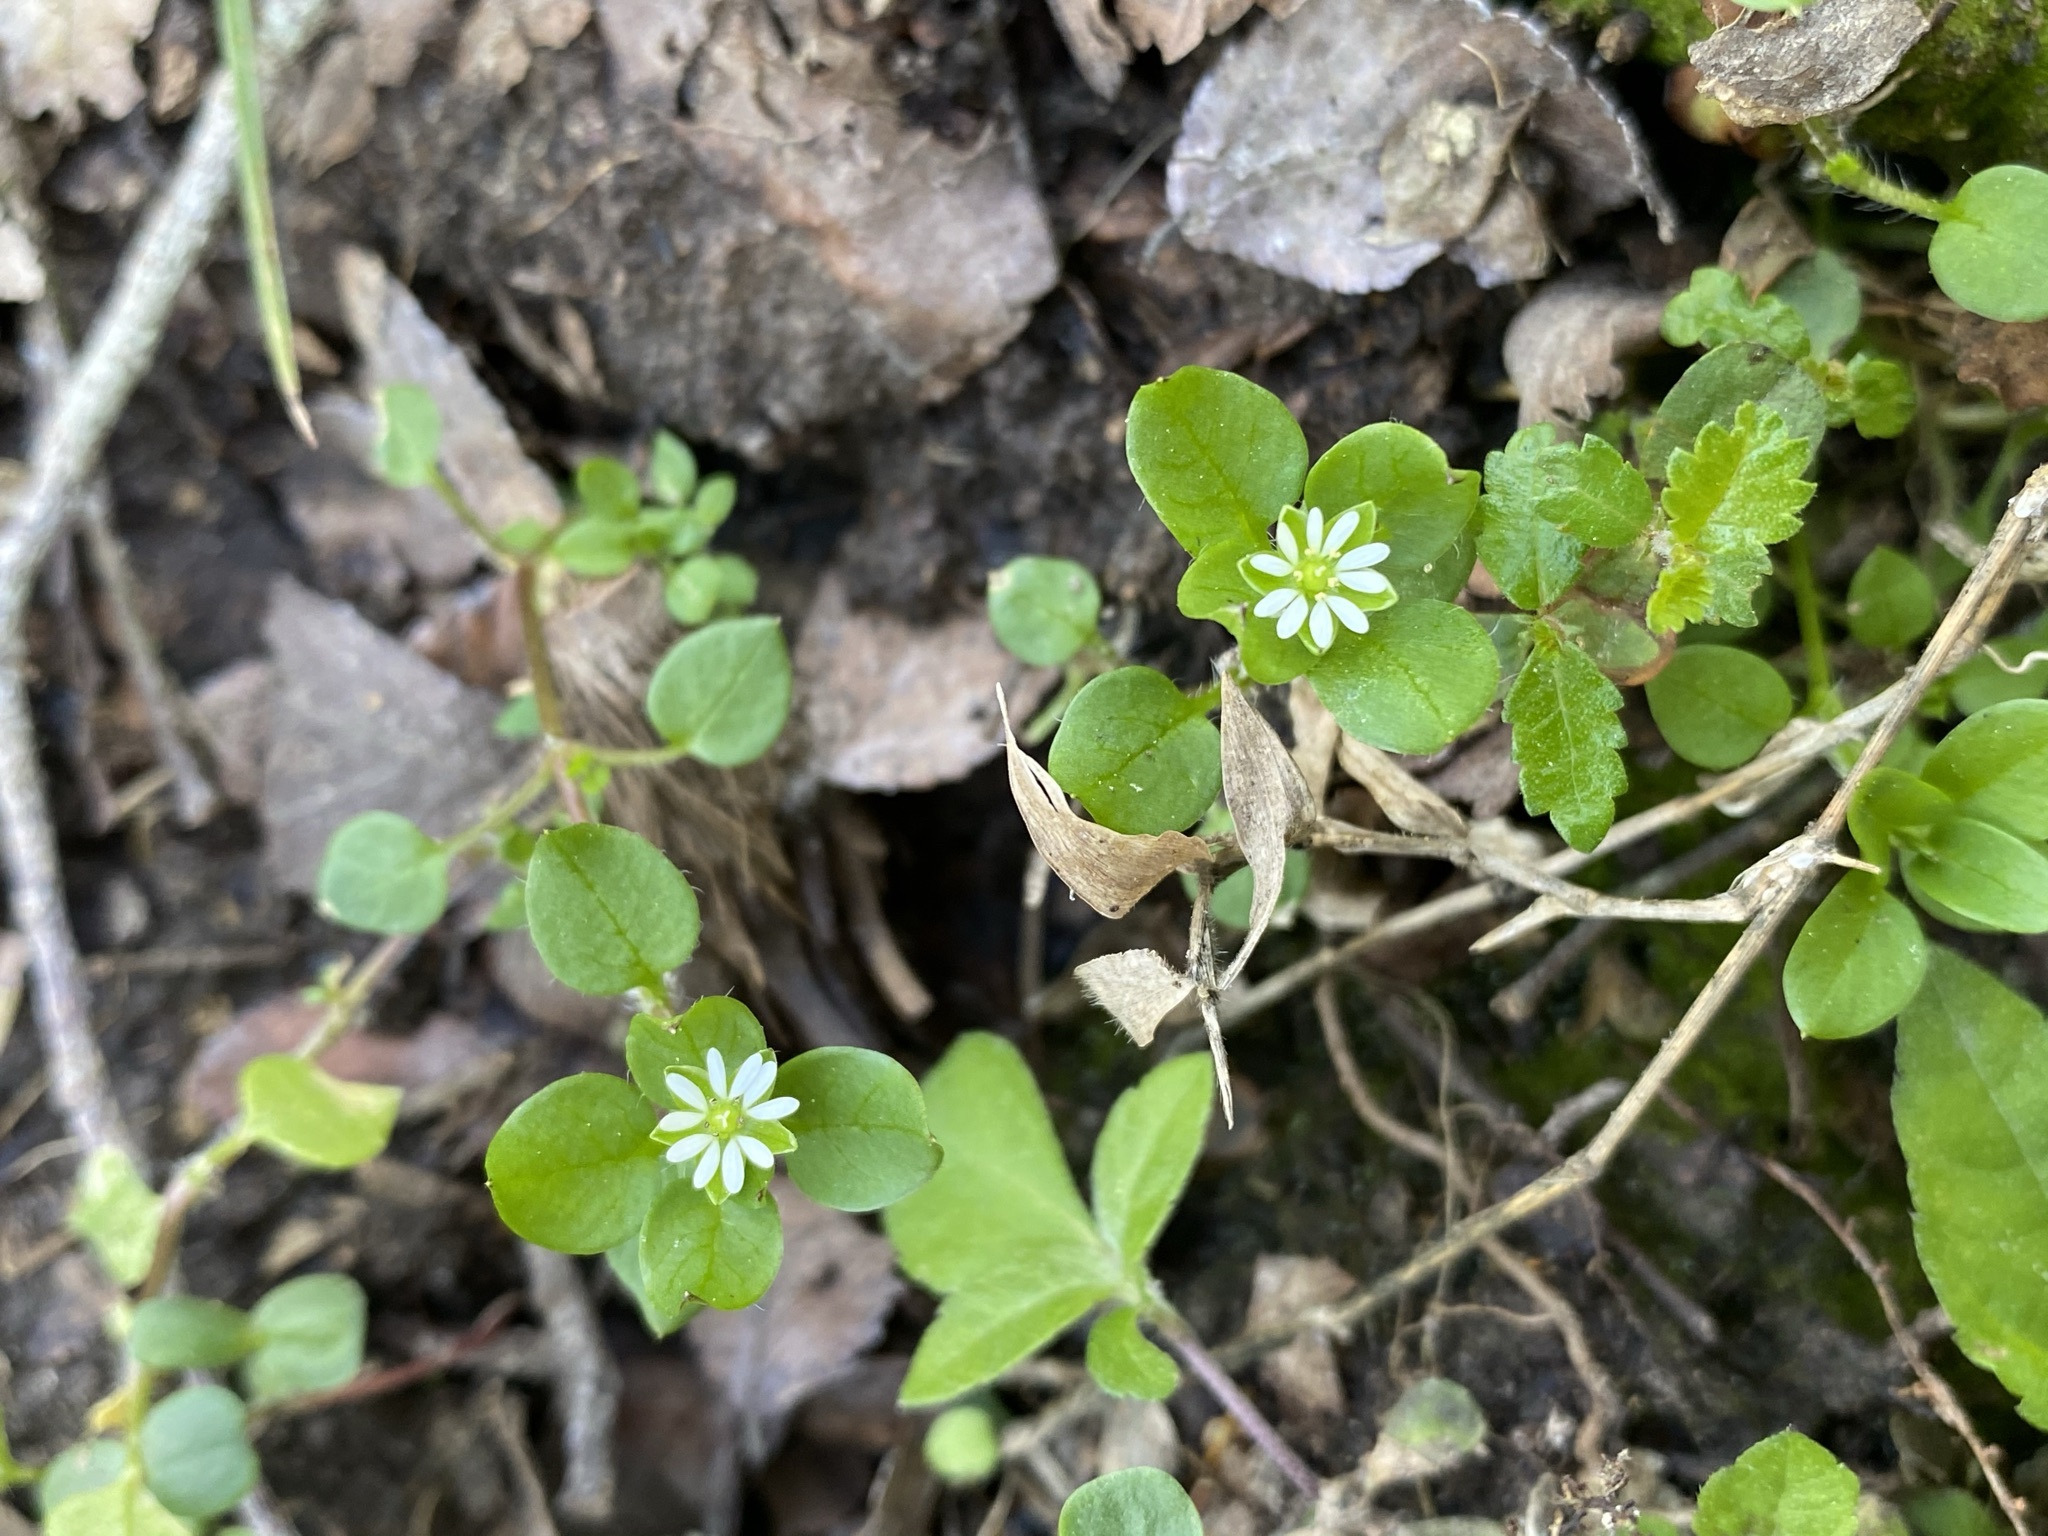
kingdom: Plantae
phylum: Tracheophyta
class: Magnoliopsida
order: Caryophyllales
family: Caryophyllaceae
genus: Stellaria
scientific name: Stellaria media
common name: Common chickweed
